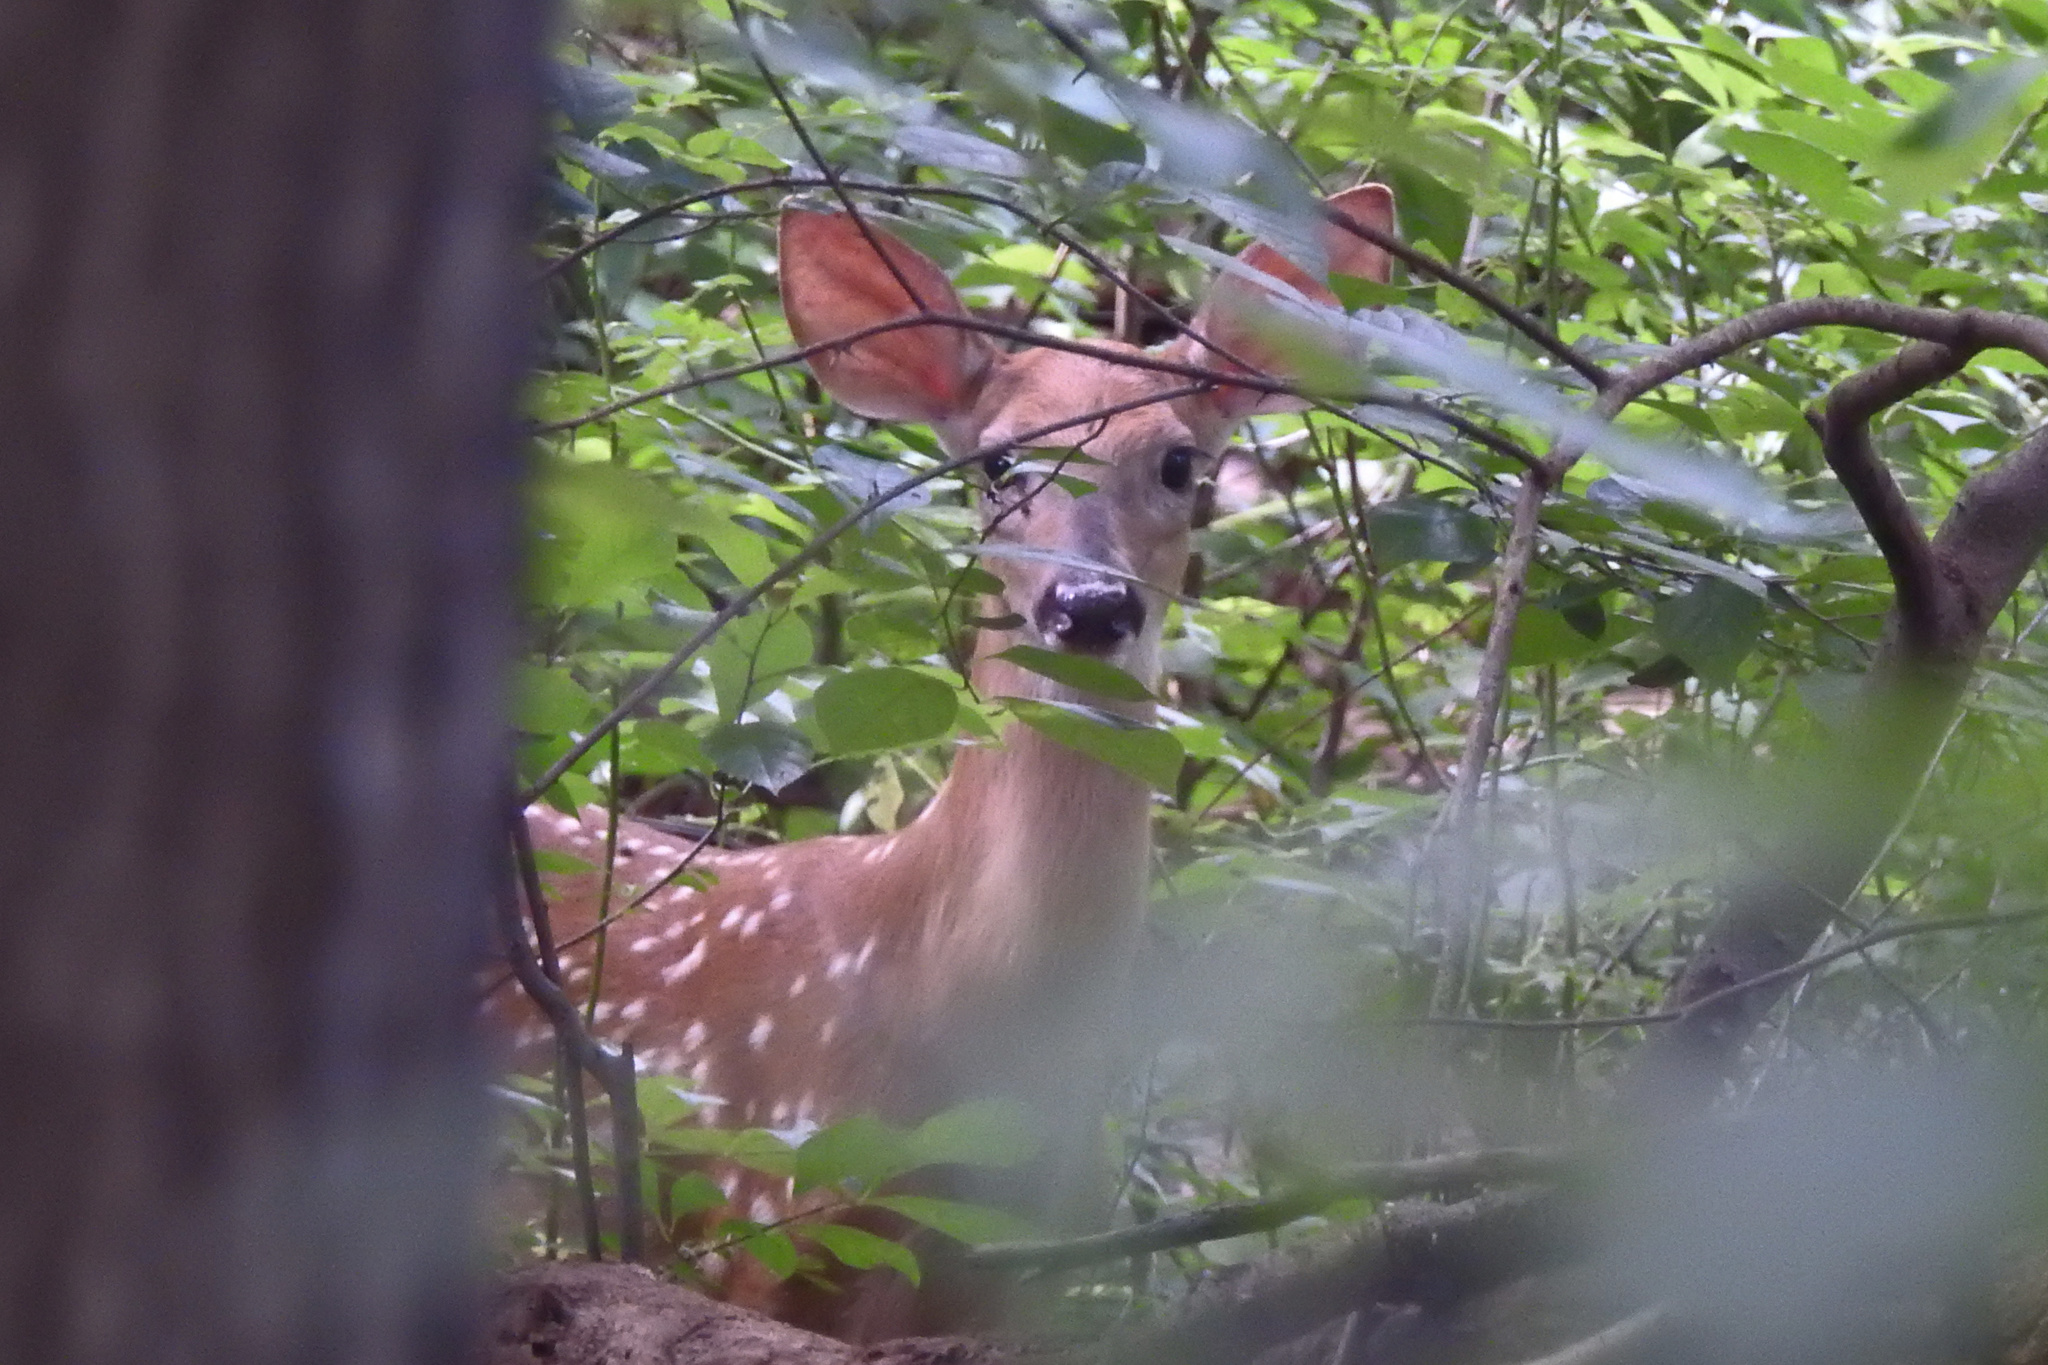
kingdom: Animalia
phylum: Chordata
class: Mammalia
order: Artiodactyla
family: Cervidae
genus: Odocoileus
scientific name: Odocoileus virginianus
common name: White-tailed deer
